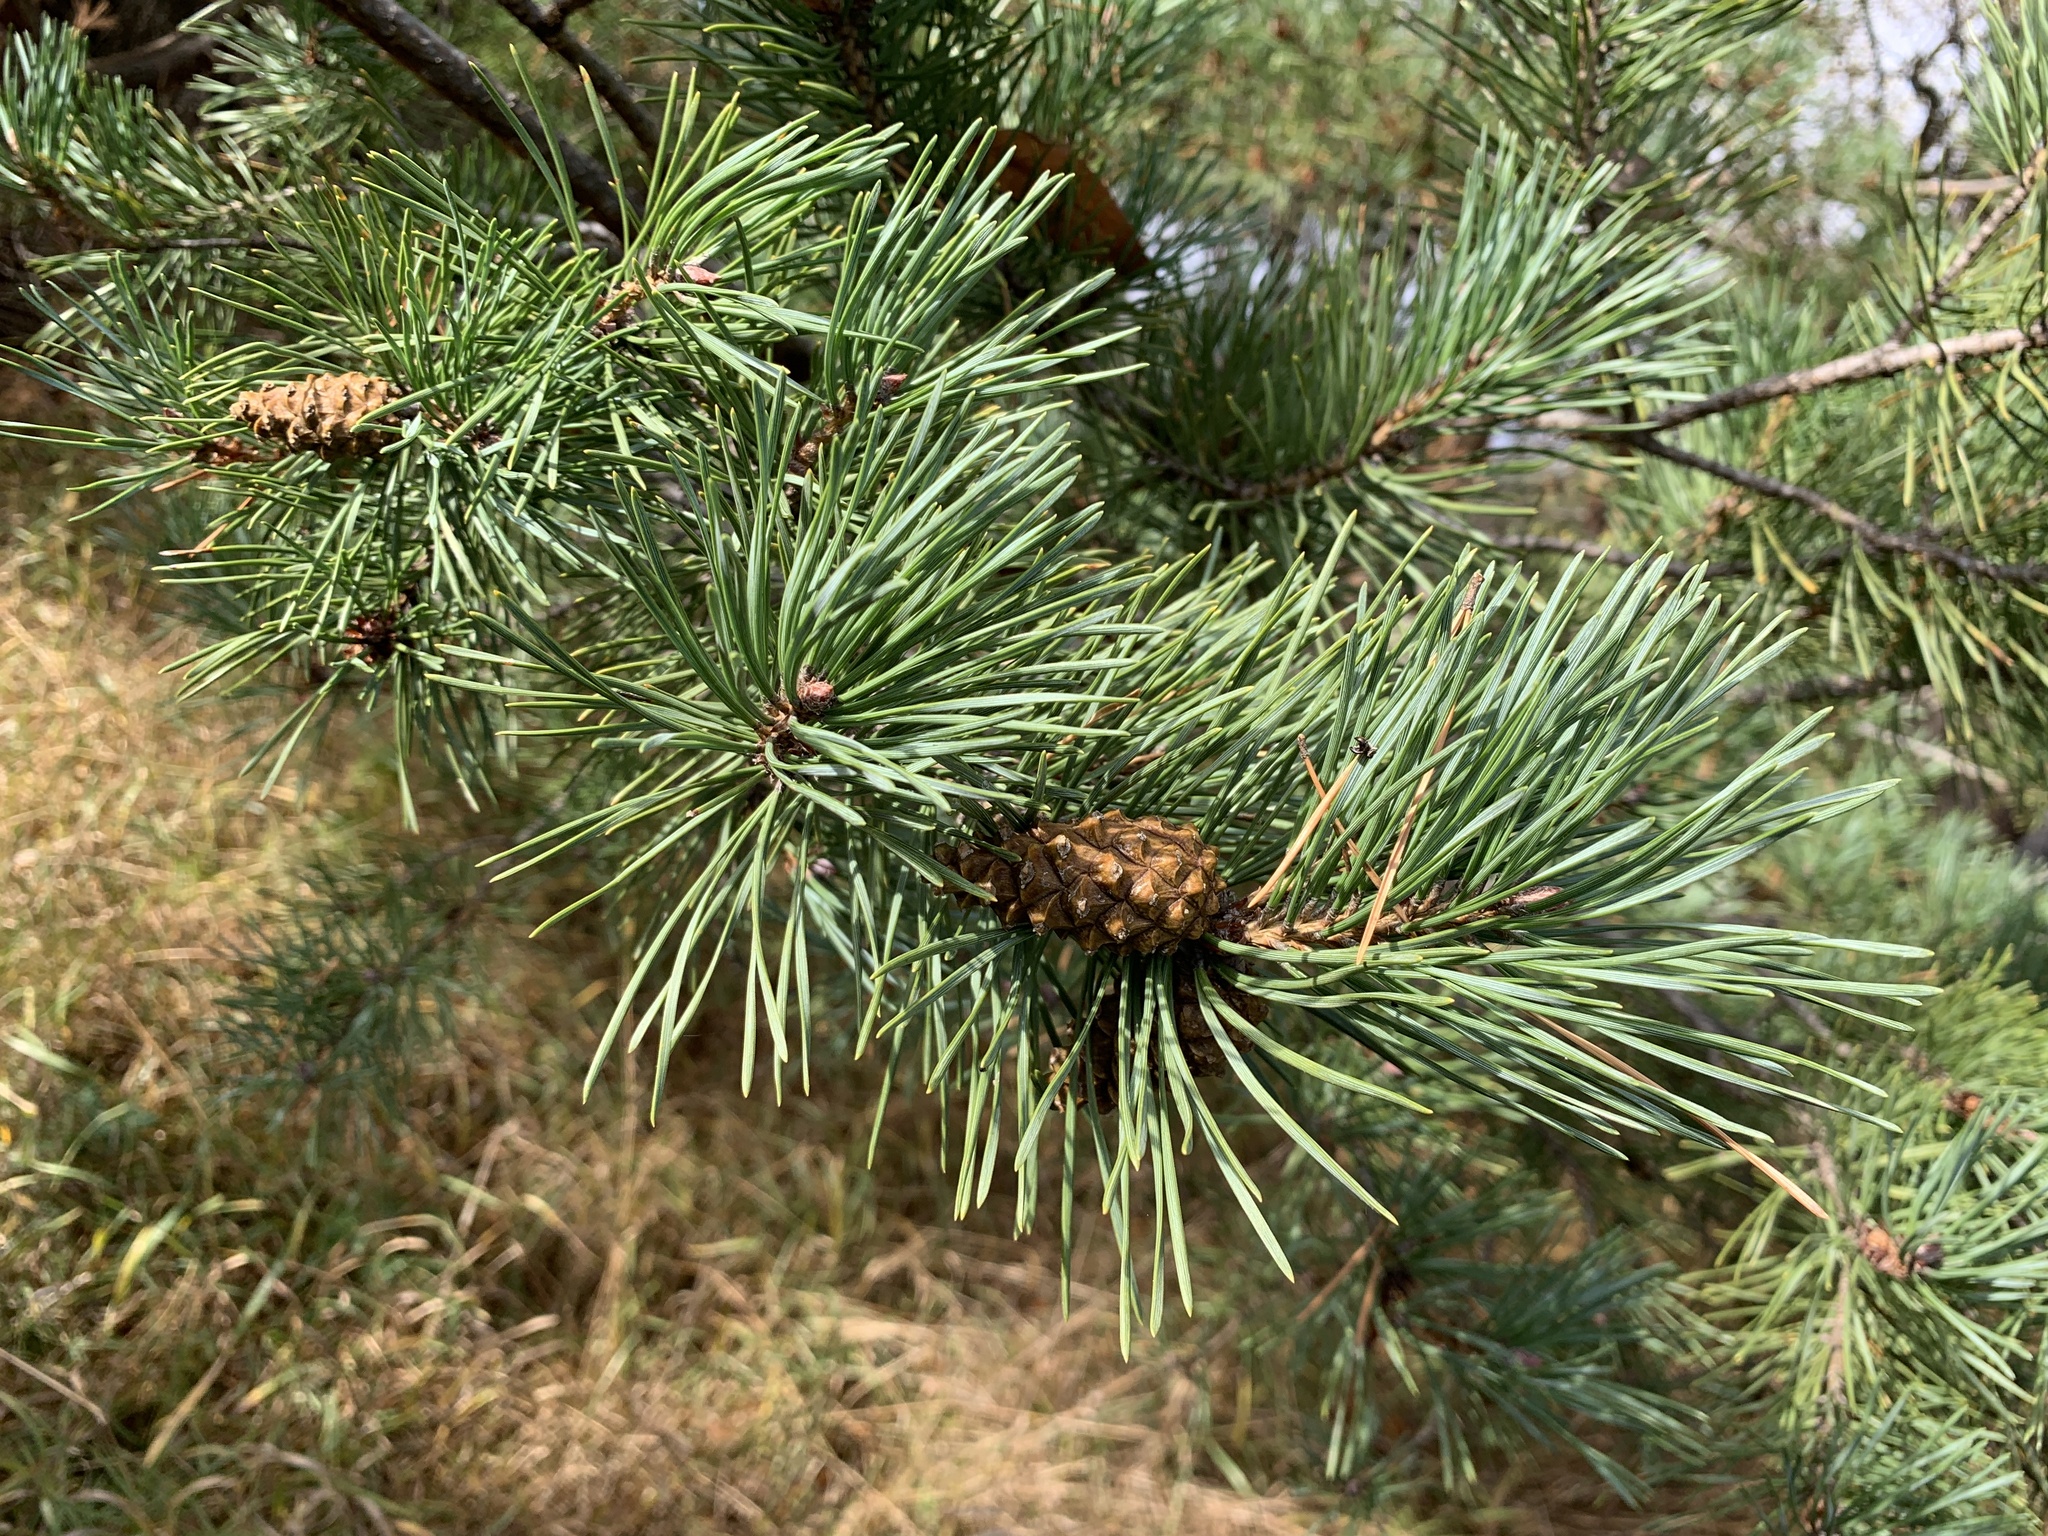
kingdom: Plantae
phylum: Tracheophyta
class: Pinopsida
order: Pinales
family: Pinaceae
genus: Pinus
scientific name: Pinus sylvestris
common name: Scots pine
